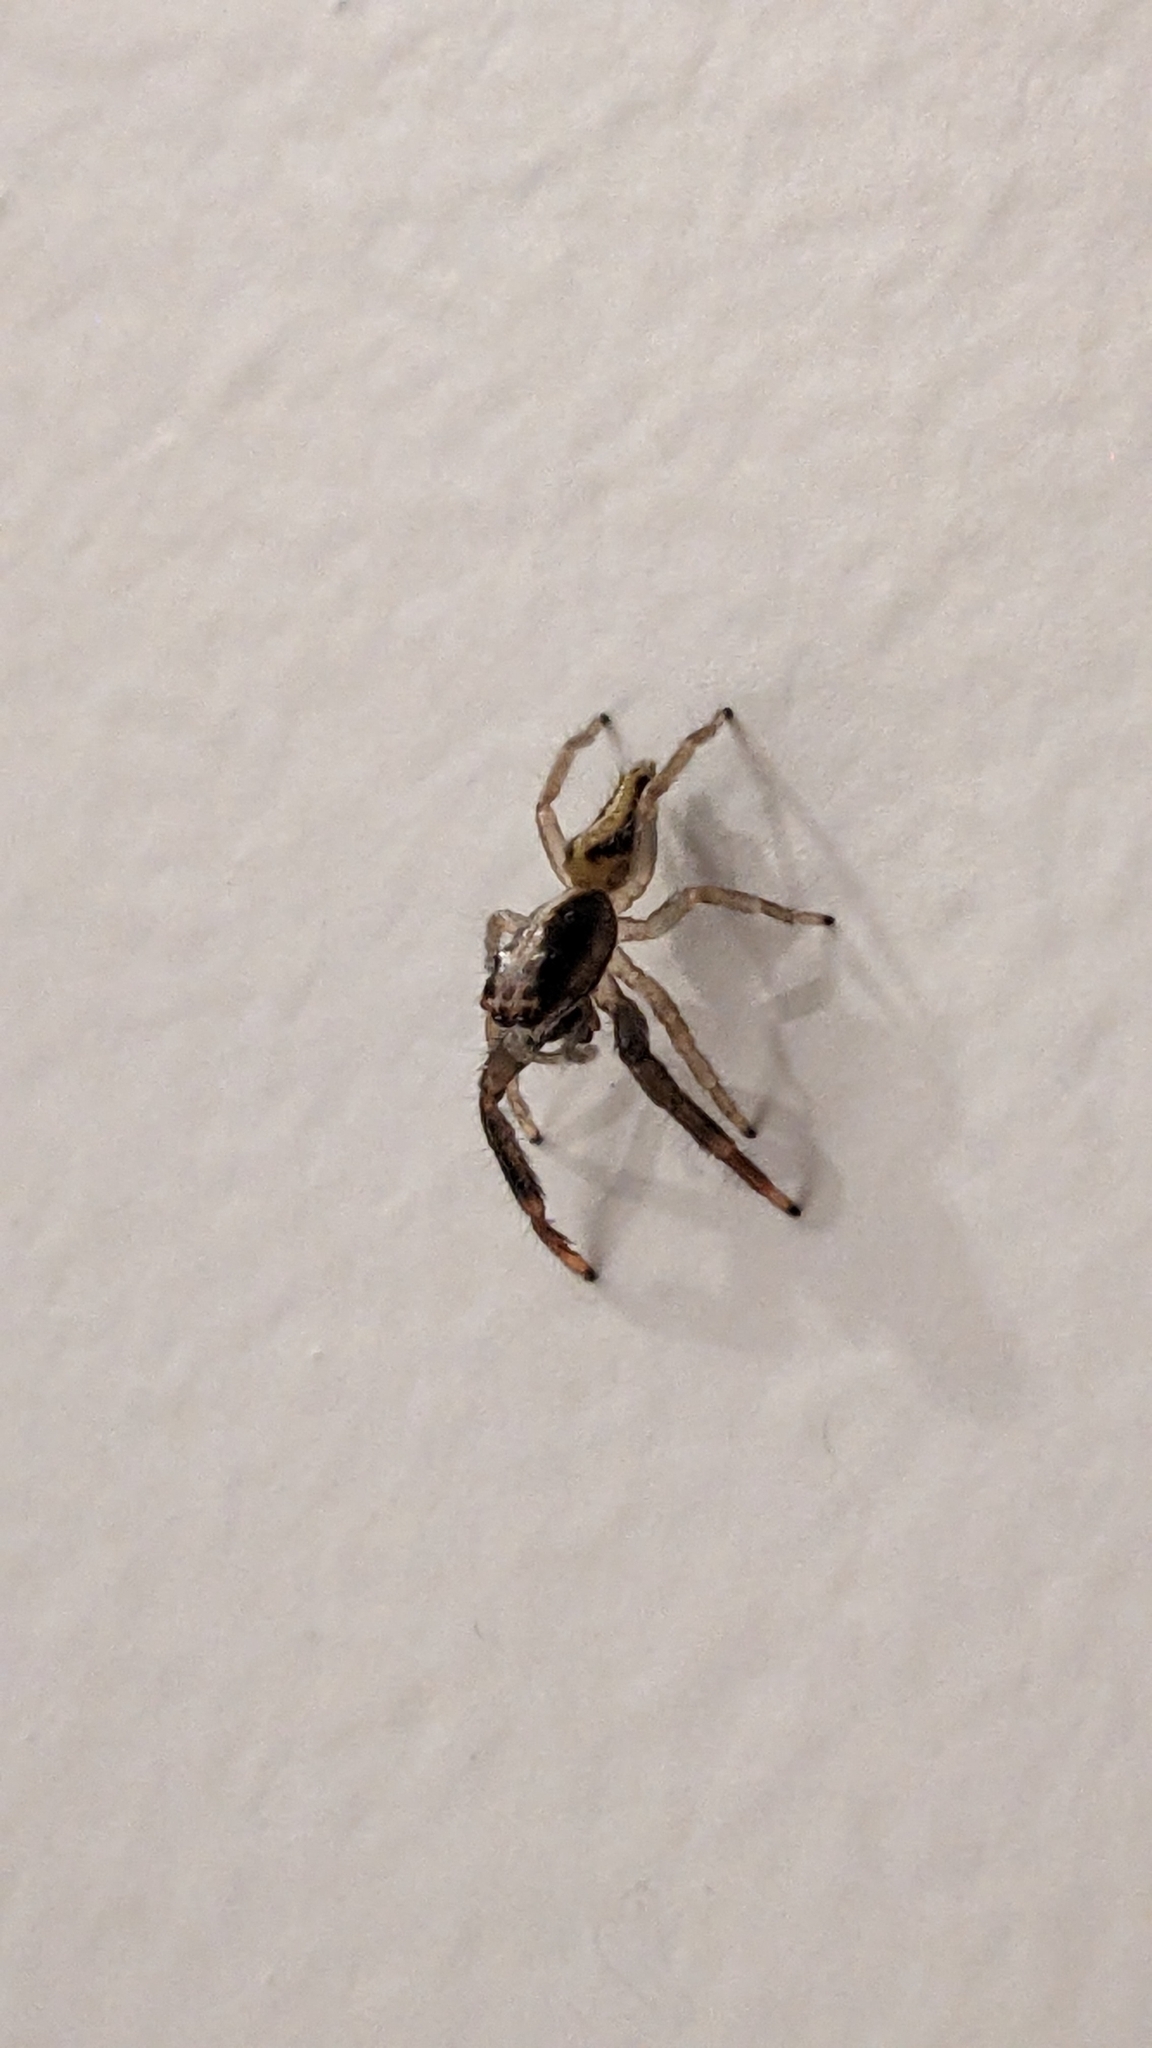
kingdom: Animalia
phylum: Arthropoda
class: Arachnida
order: Araneae
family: Salticidae
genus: Trite
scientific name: Trite planiceps
